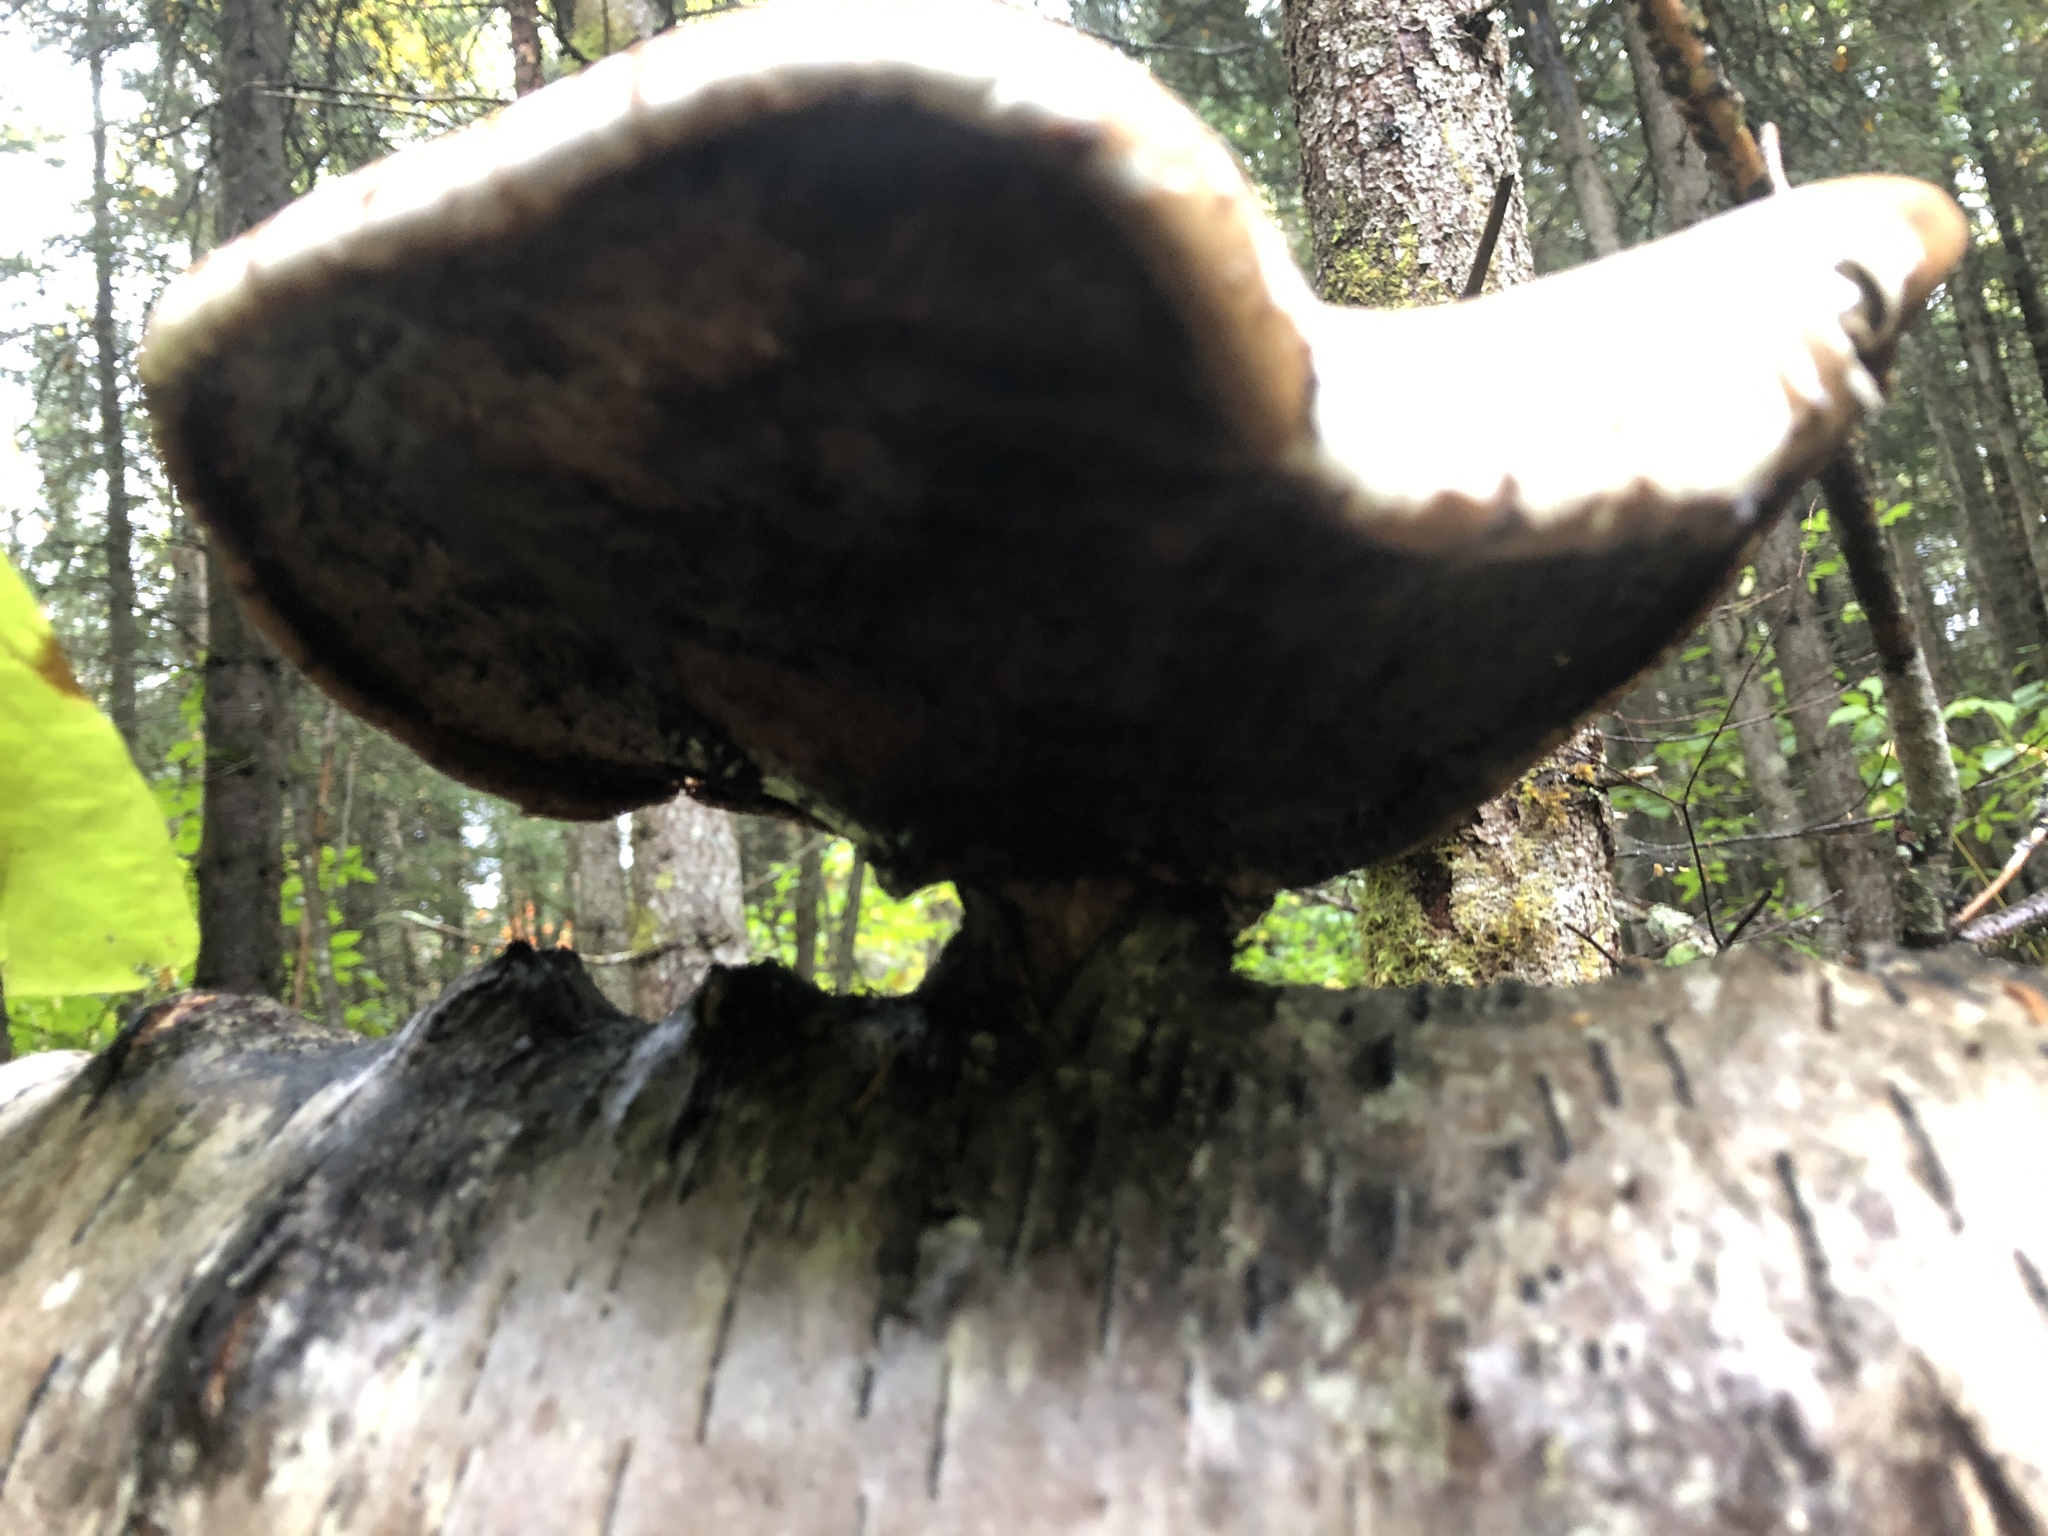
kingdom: Fungi
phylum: Basidiomycota
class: Agaricomycetes
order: Polyporales
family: Fomitopsidaceae
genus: Fomitopsis
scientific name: Fomitopsis betulina
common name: Birch polypore
